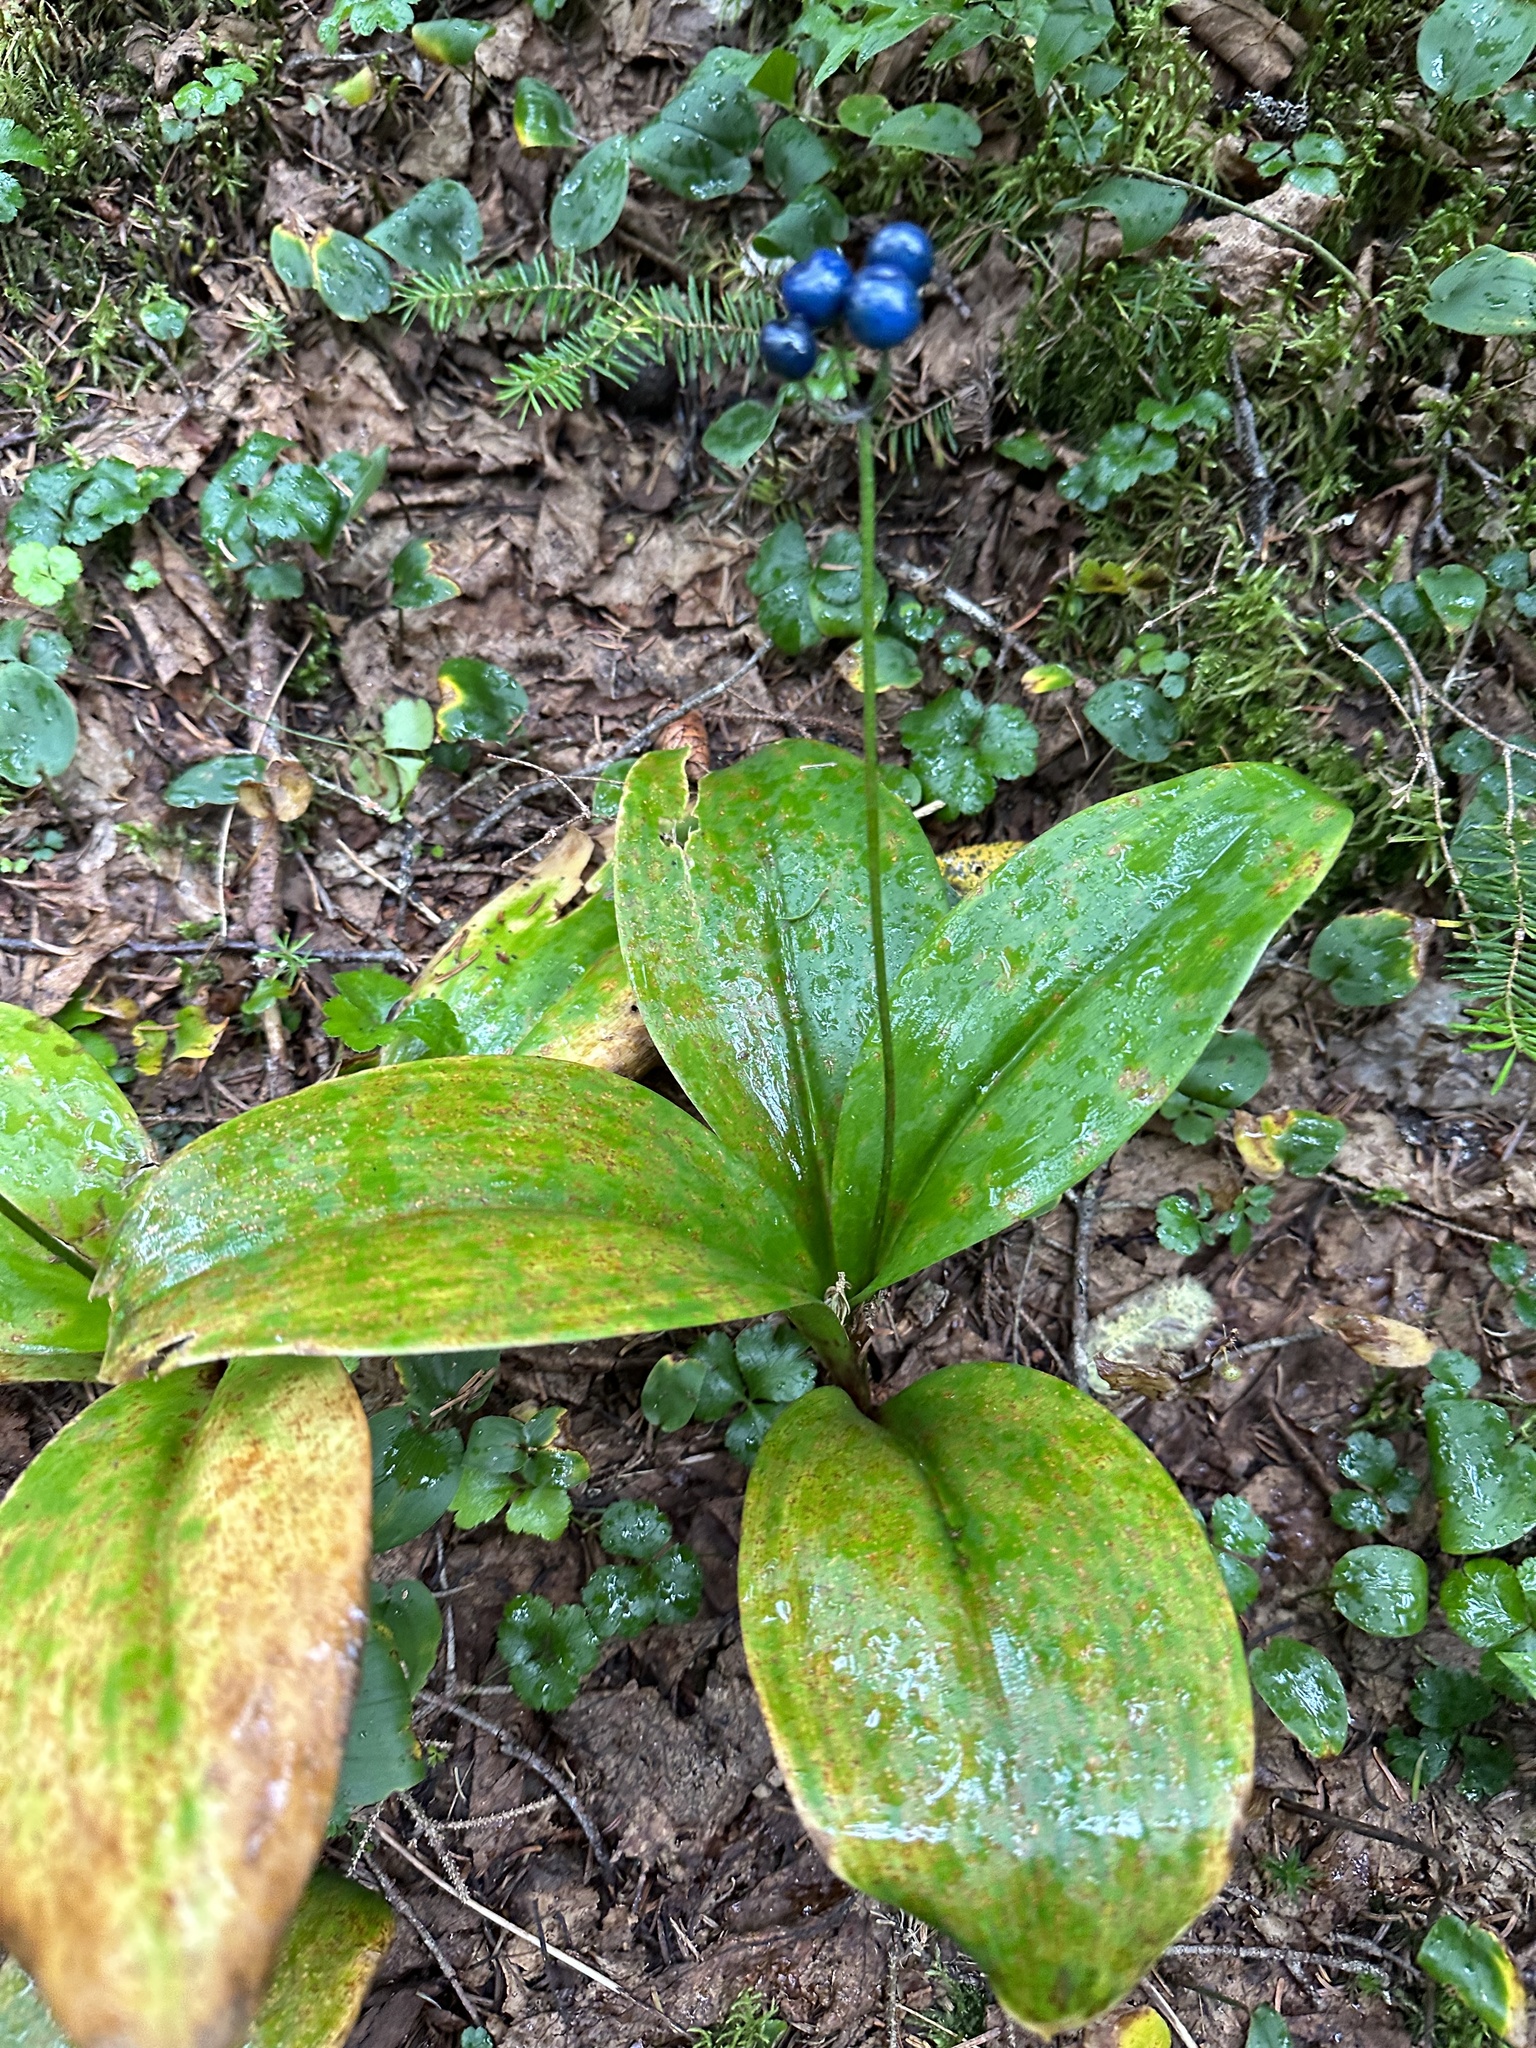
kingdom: Plantae
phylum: Tracheophyta
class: Liliopsida
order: Liliales
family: Liliaceae
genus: Clintonia
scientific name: Clintonia borealis
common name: Yellow clintonia
